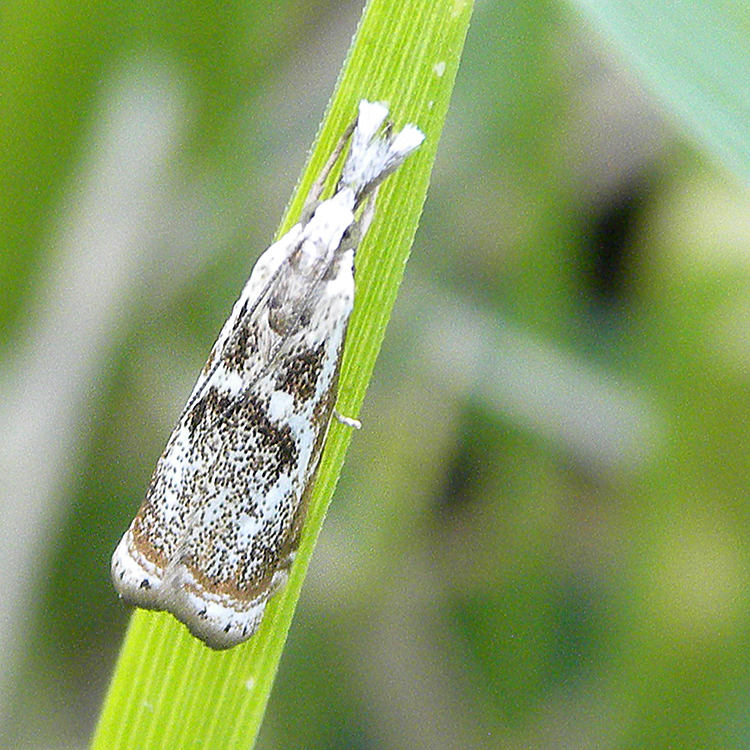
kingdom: Animalia
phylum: Arthropoda
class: Insecta
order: Lepidoptera
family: Crambidae
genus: Microcrambus
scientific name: Microcrambus elegans
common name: Elegant grass-veneer
